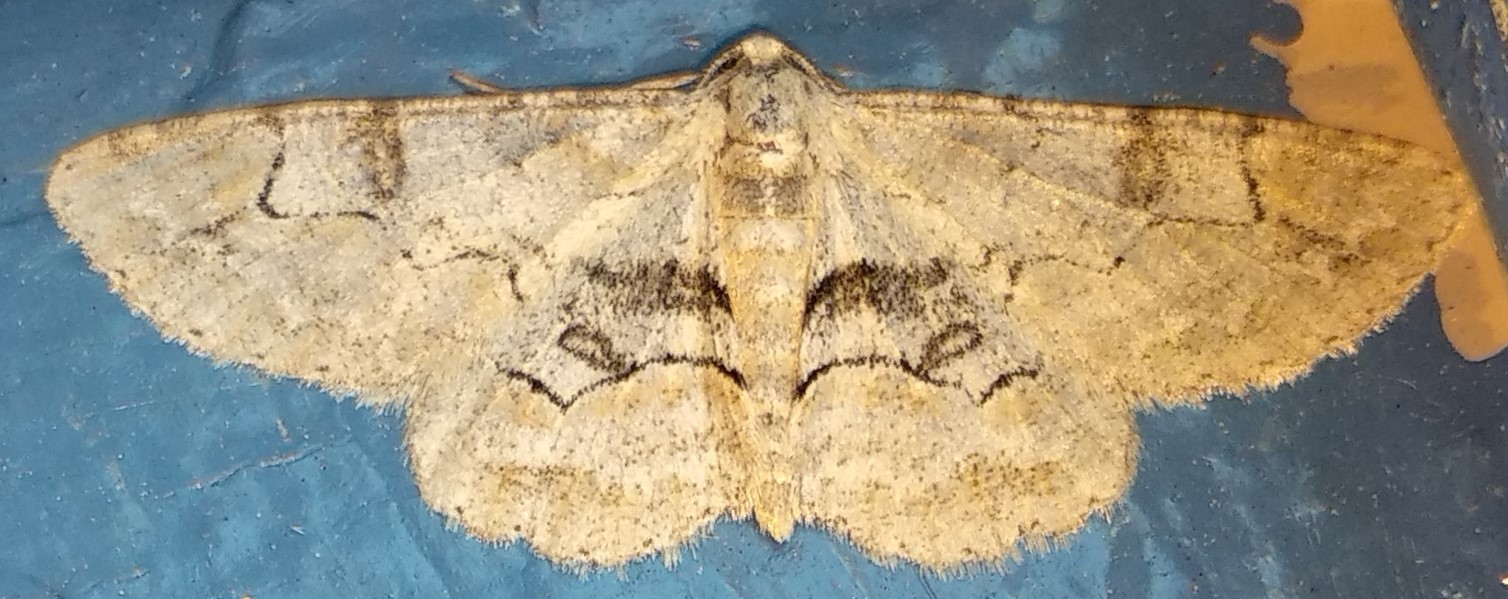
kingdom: Animalia
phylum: Arthropoda
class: Insecta
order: Lepidoptera
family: Geometridae
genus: Iridopsis
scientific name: Iridopsis larvaria
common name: Bent-line gray
